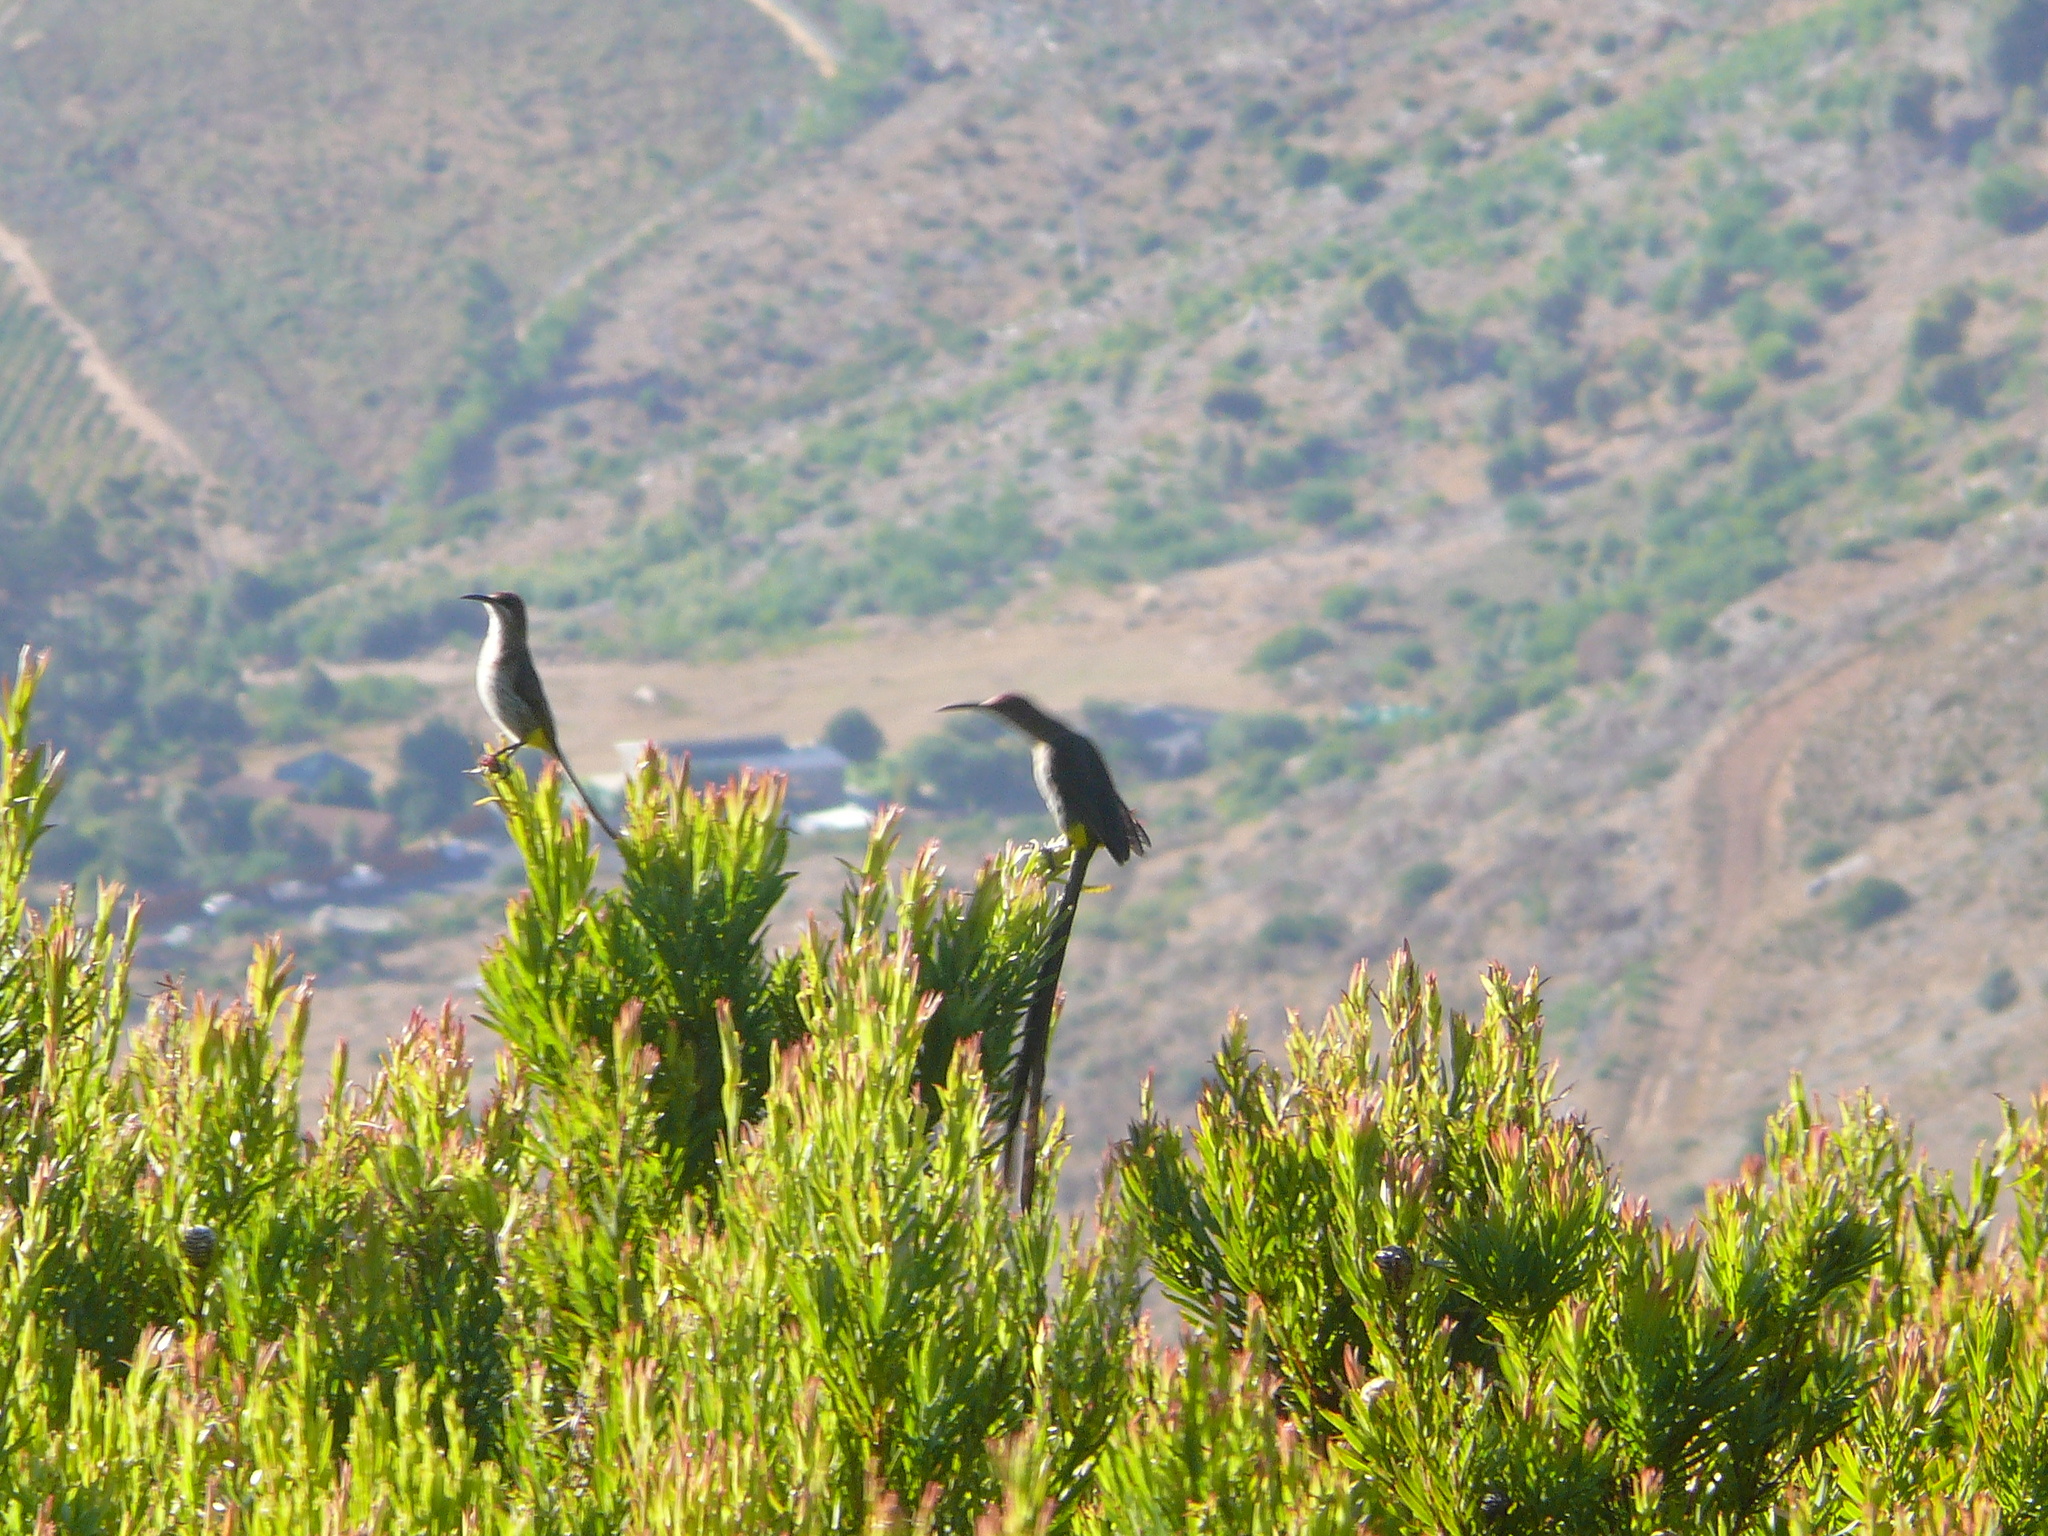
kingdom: Animalia
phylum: Chordata
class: Aves
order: Passeriformes
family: Promeropidae
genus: Promerops
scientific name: Promerops cafer
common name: Cape sugarbird
